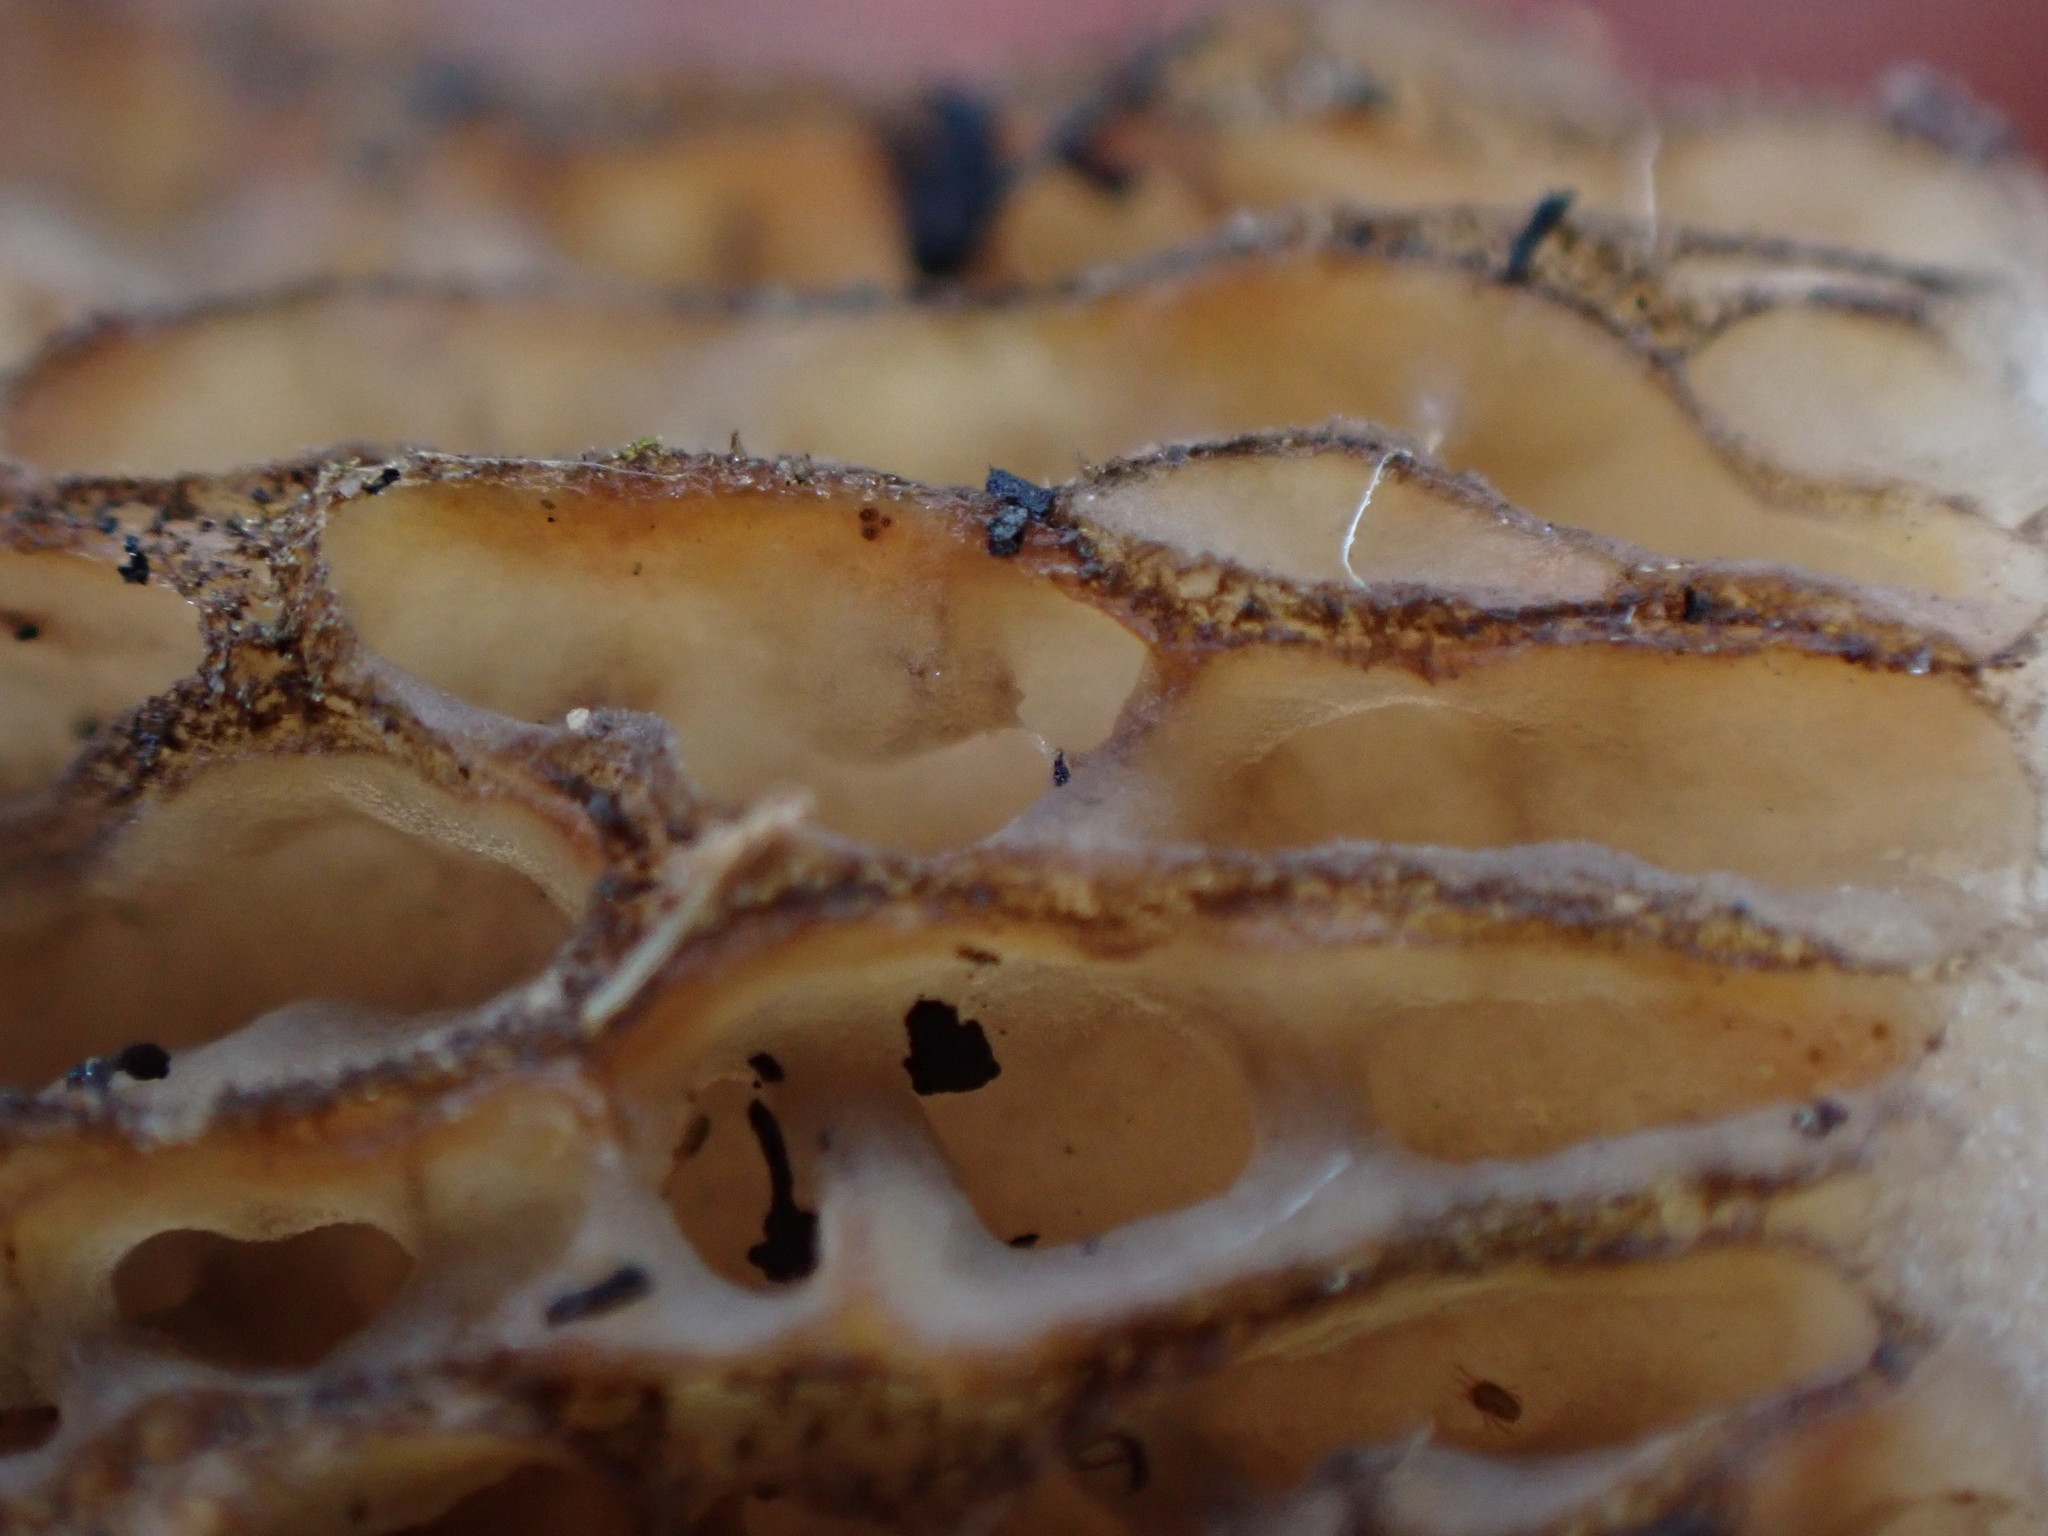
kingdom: Fungi
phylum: Ascomycota
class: Pezizomycetes
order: Pezizales
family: Morchellaceae
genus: Morchella
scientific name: Morchella tomentosa
